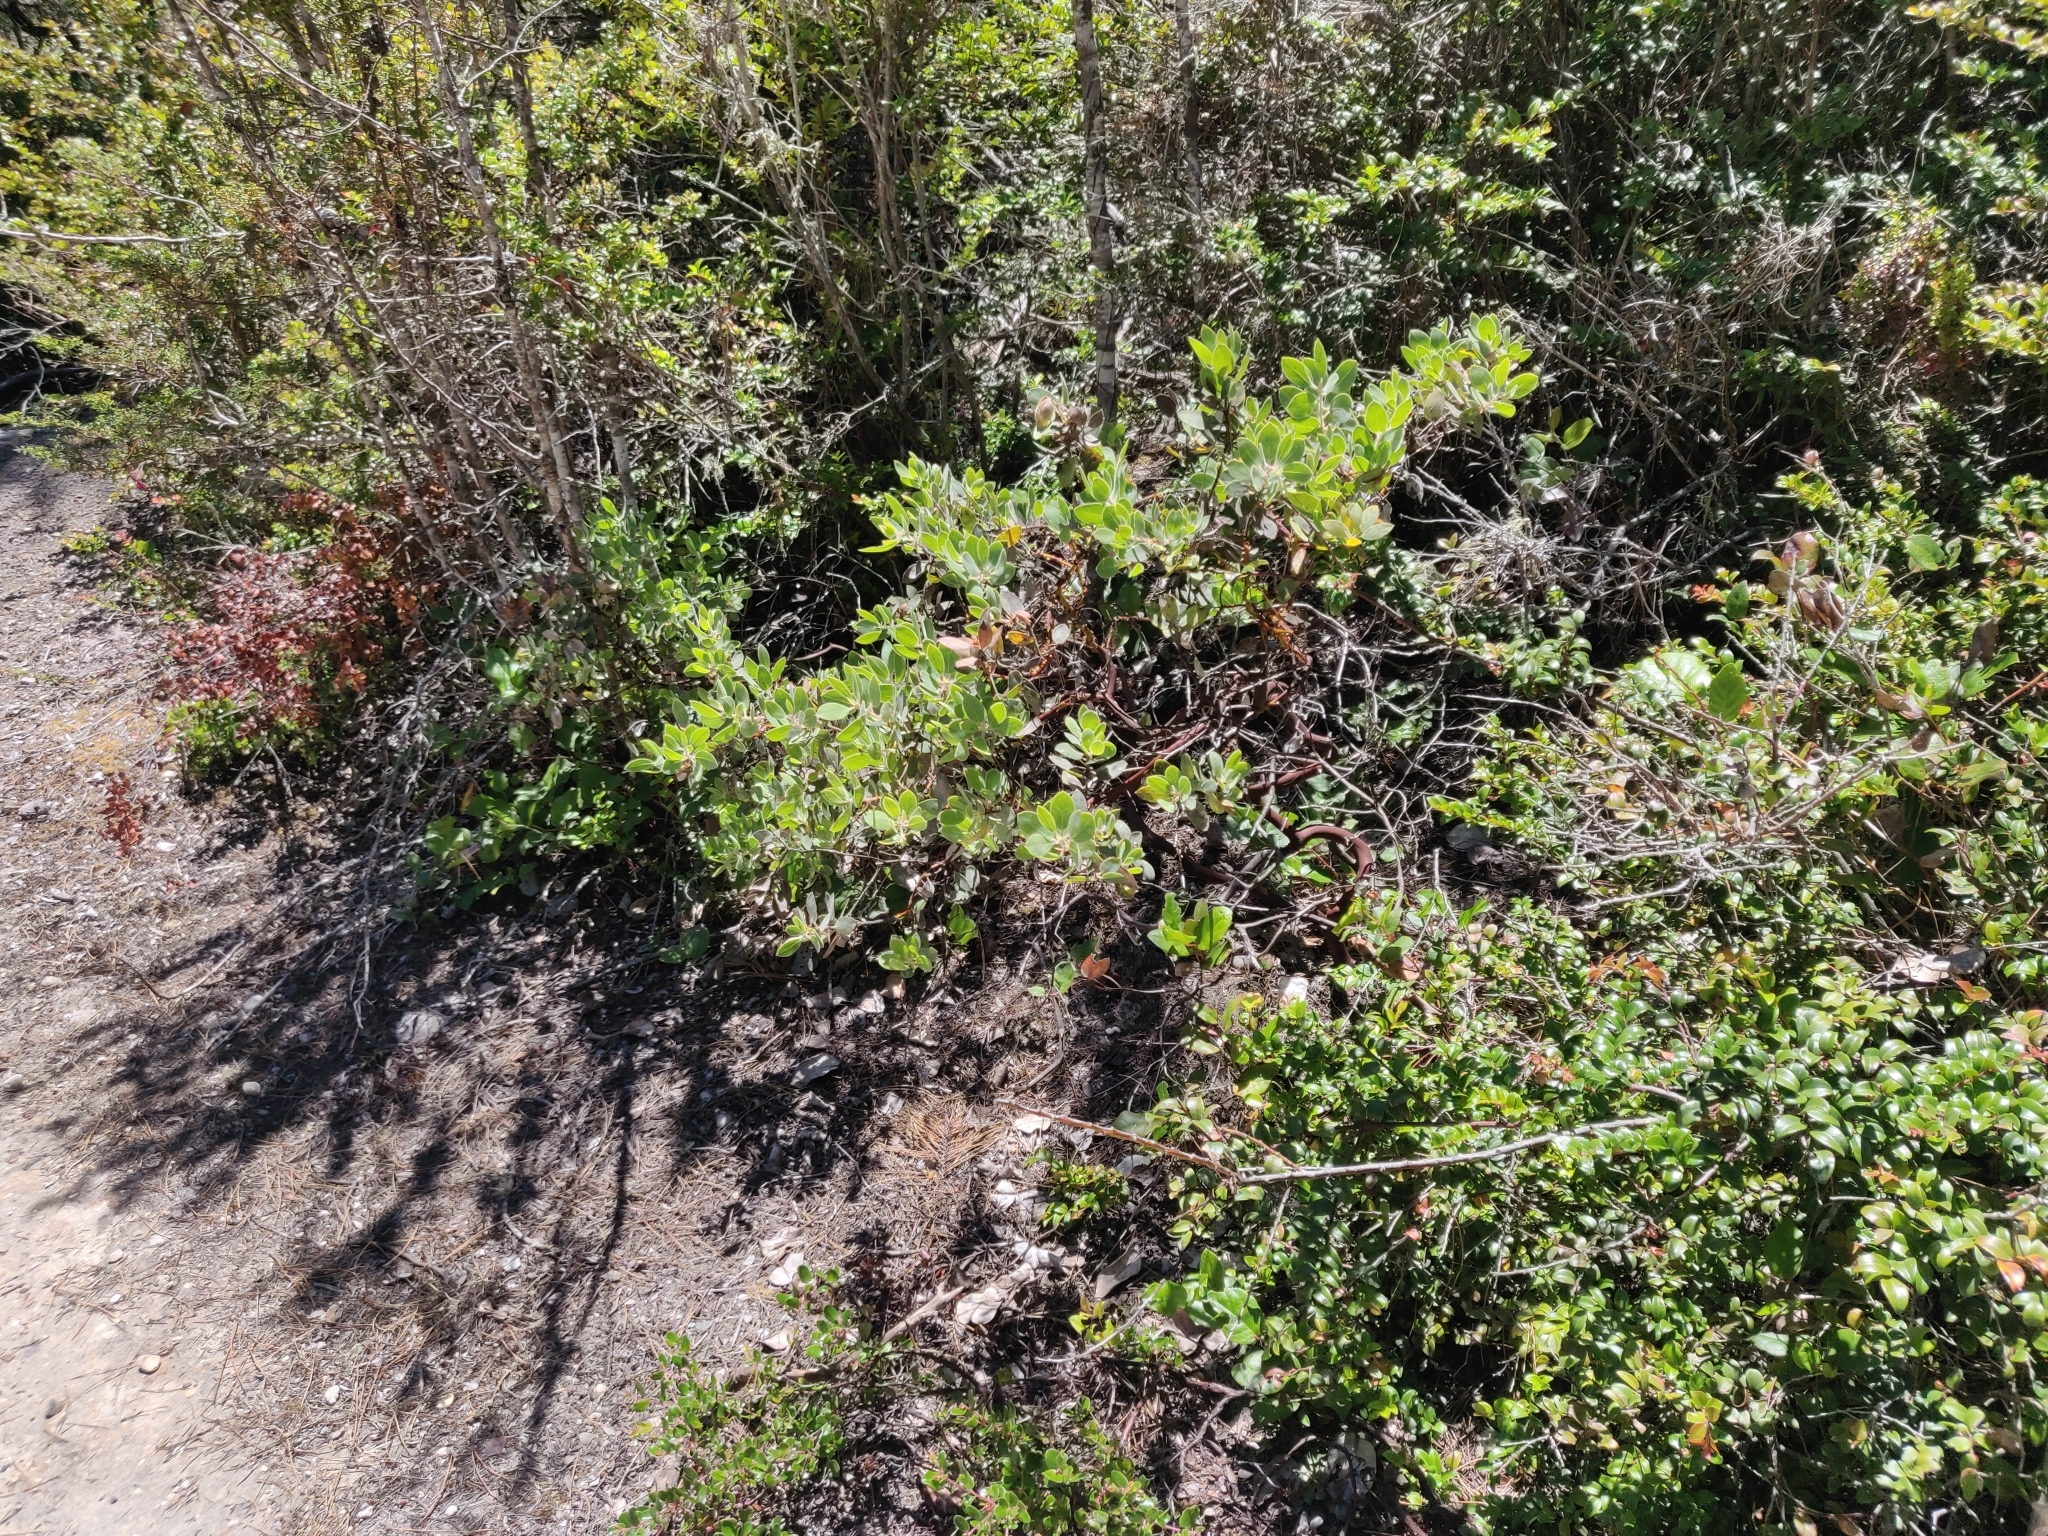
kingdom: Plantae
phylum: Tracheophyta
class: Magnoliopsida
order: Ericales
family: Ericaceae
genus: Arctostaphylos
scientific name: Arctostaphylos columbiana
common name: Bristly bearberry
